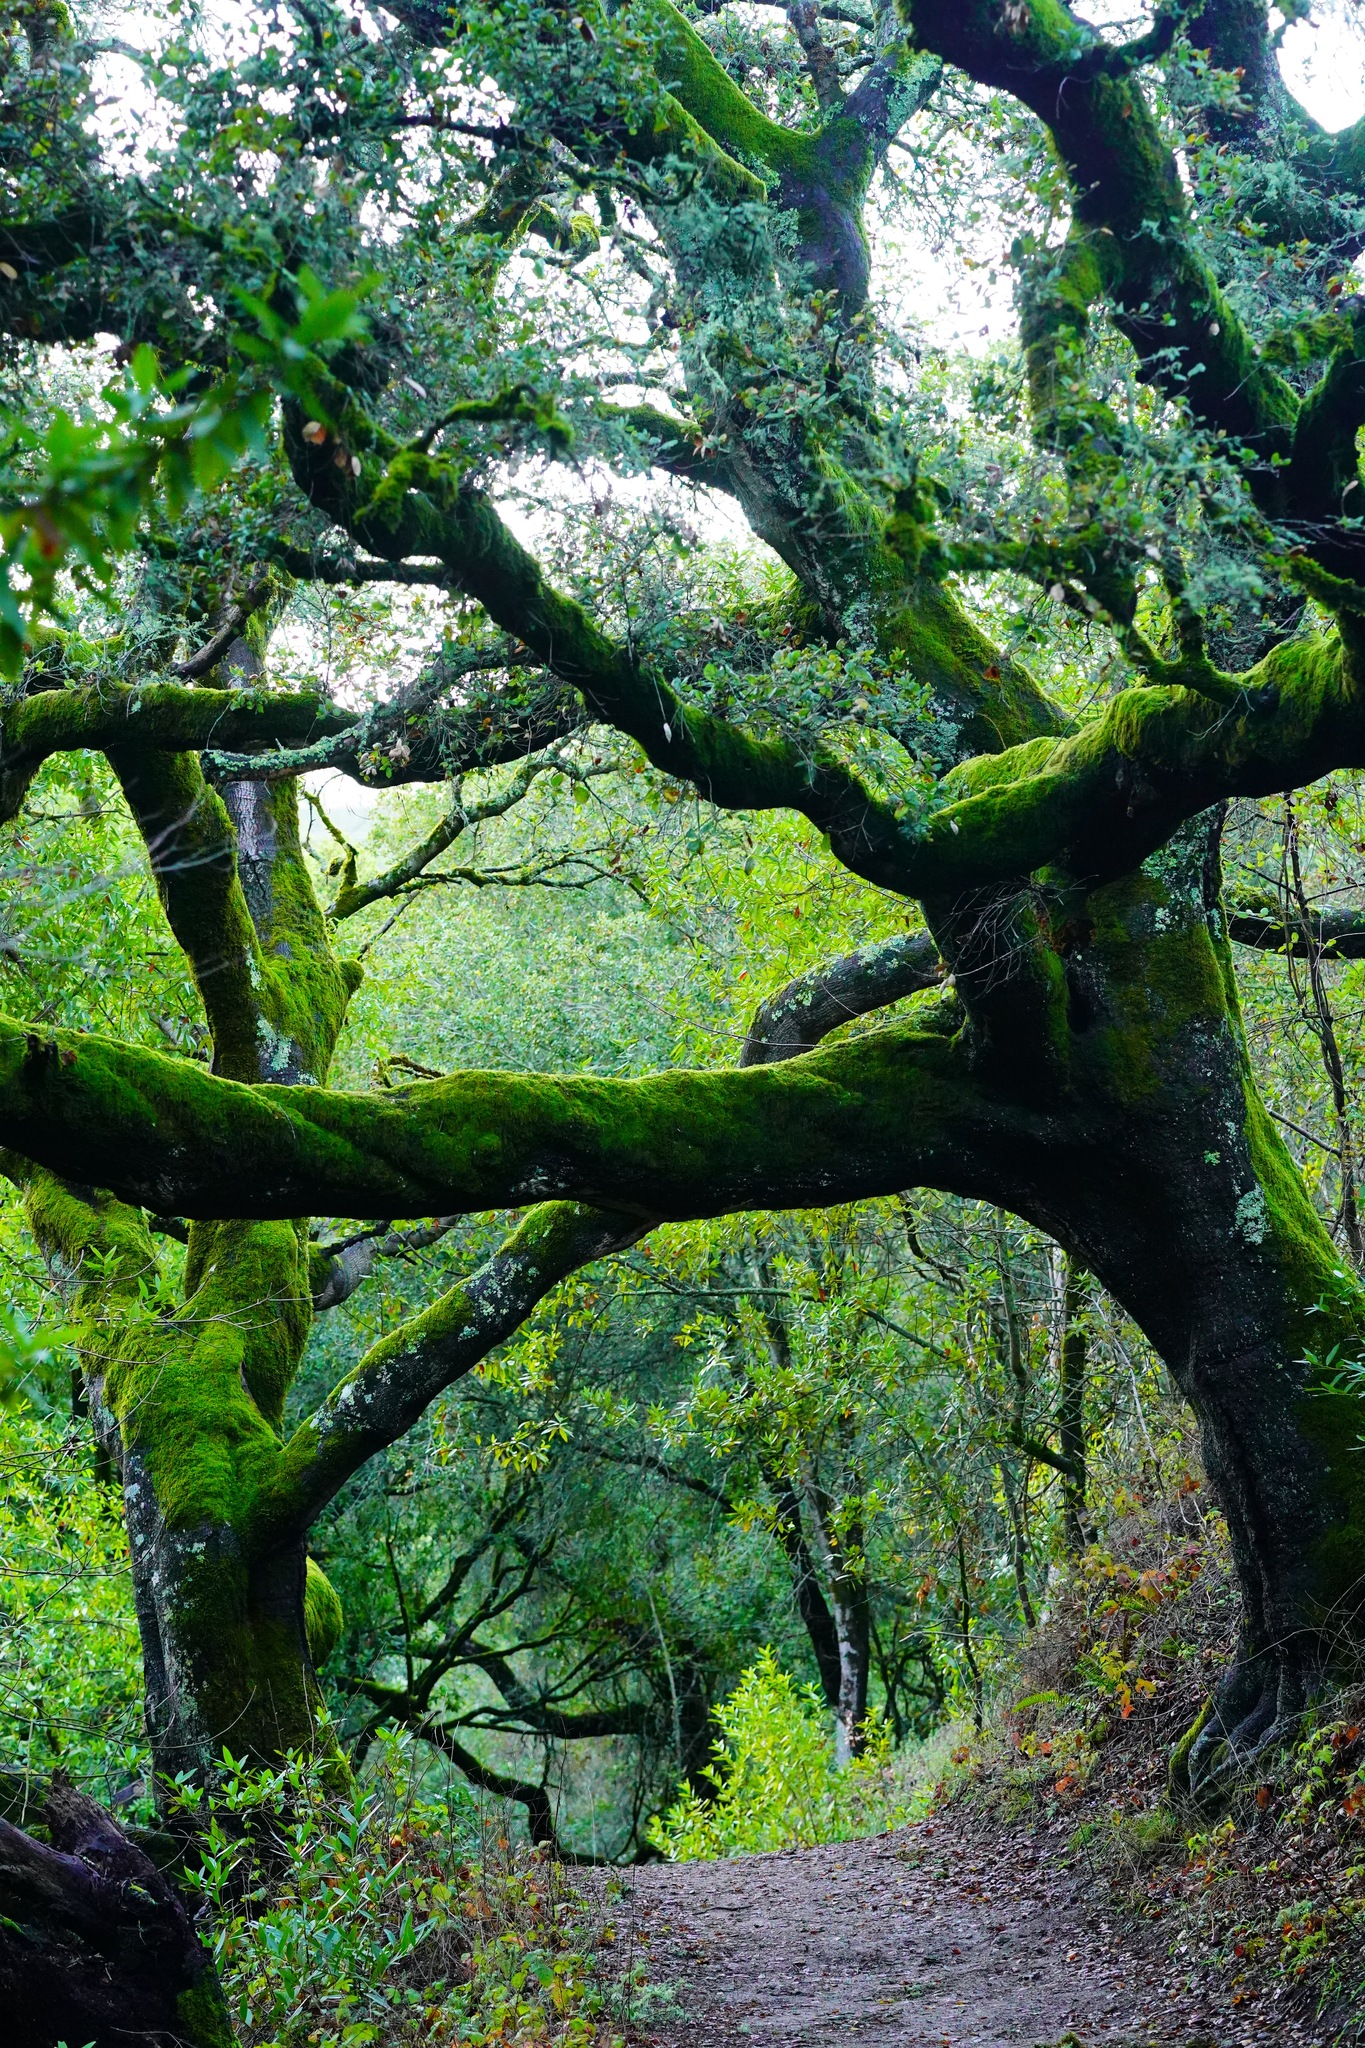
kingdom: Plantae
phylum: Tracheophyta
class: Magnoliopsida
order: Fagales
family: Fagaceae
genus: Quercus
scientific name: Quercus agrifolia
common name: California live oak
